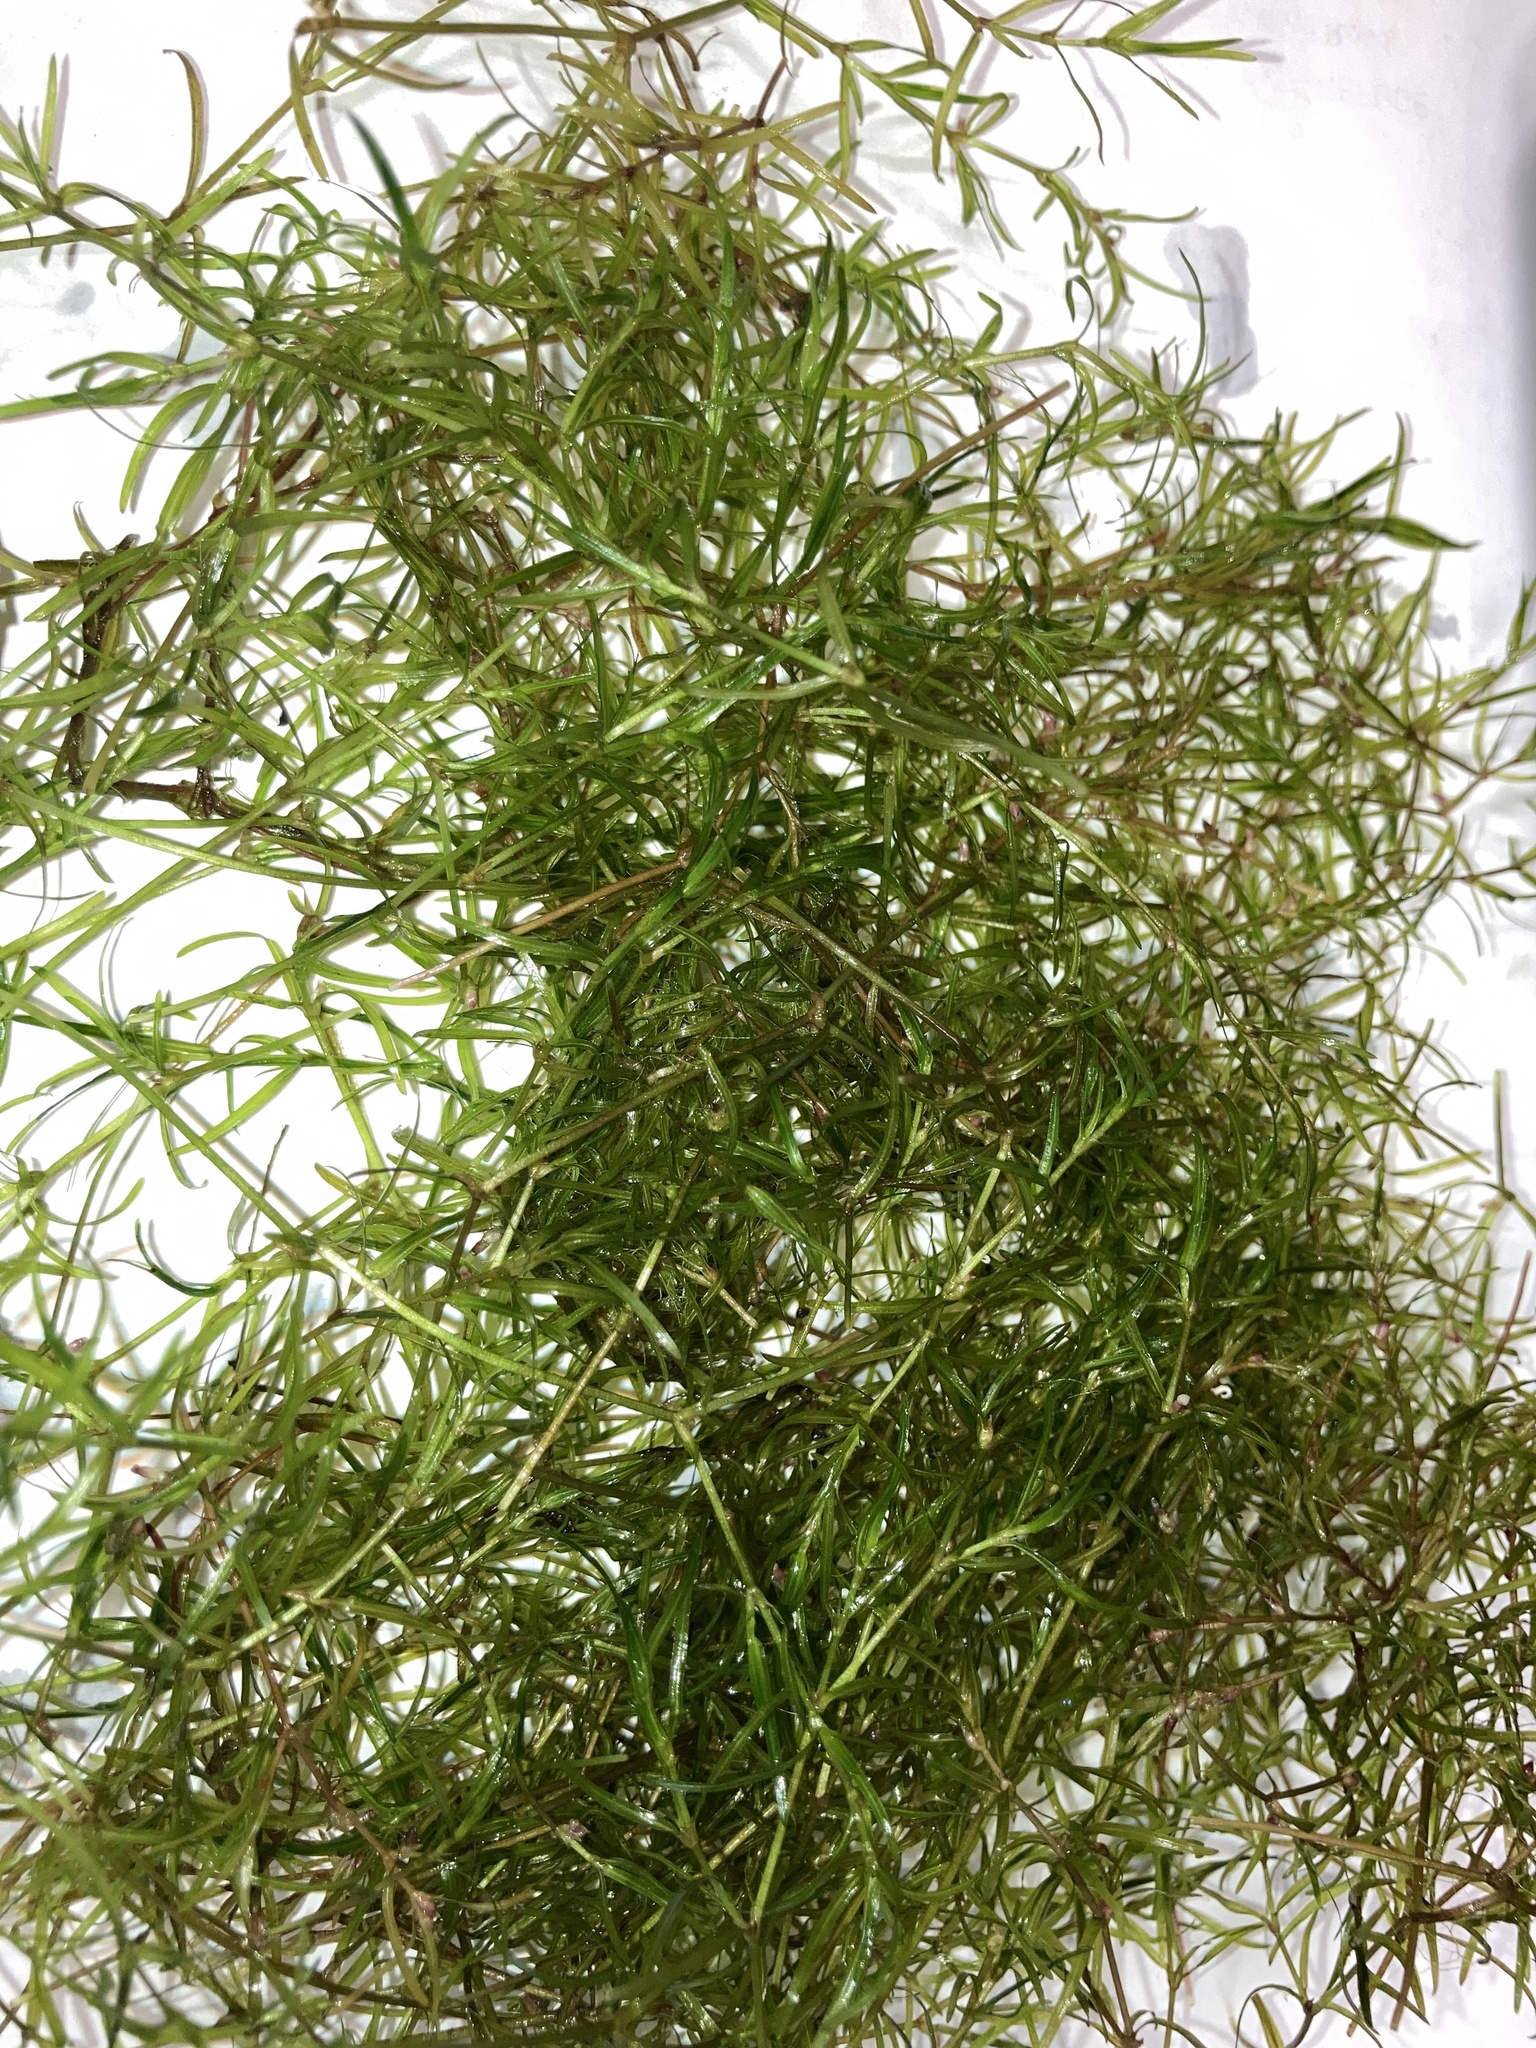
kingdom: Plantae
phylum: Tracheophyta
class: Liliopsida
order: Alismatales
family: Hydrocharitaceae
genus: Najas
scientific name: Najas guadalupensis
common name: Southern naiad
